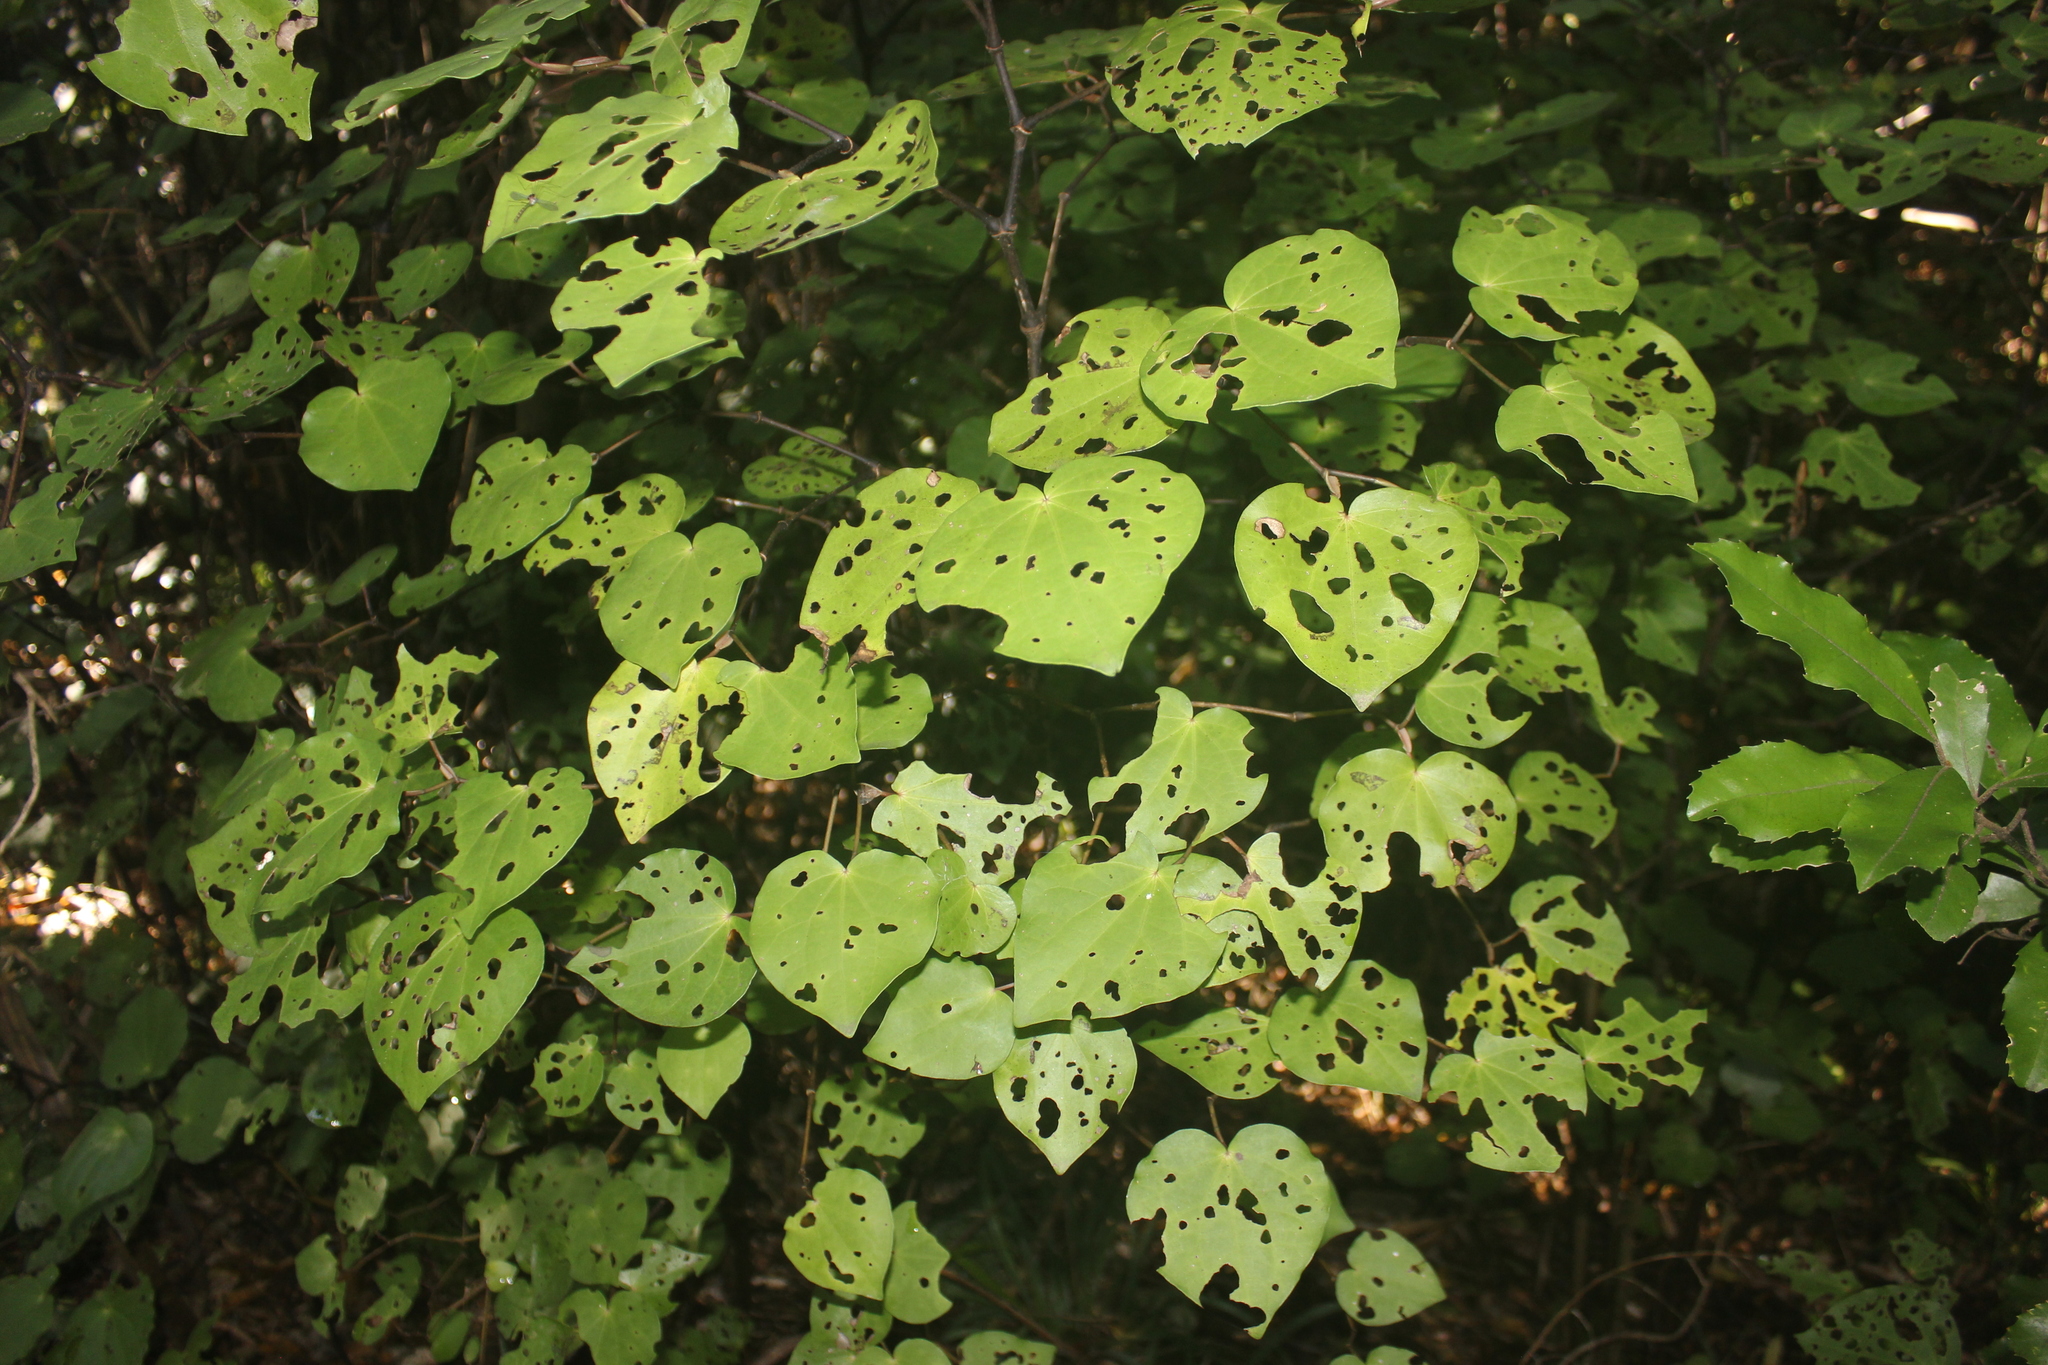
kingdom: Plantae
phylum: Tracheophyta
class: Magnoliopsida
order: Piperales
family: Piperaceae
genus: Macropiper
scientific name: Macropiper excelsum
